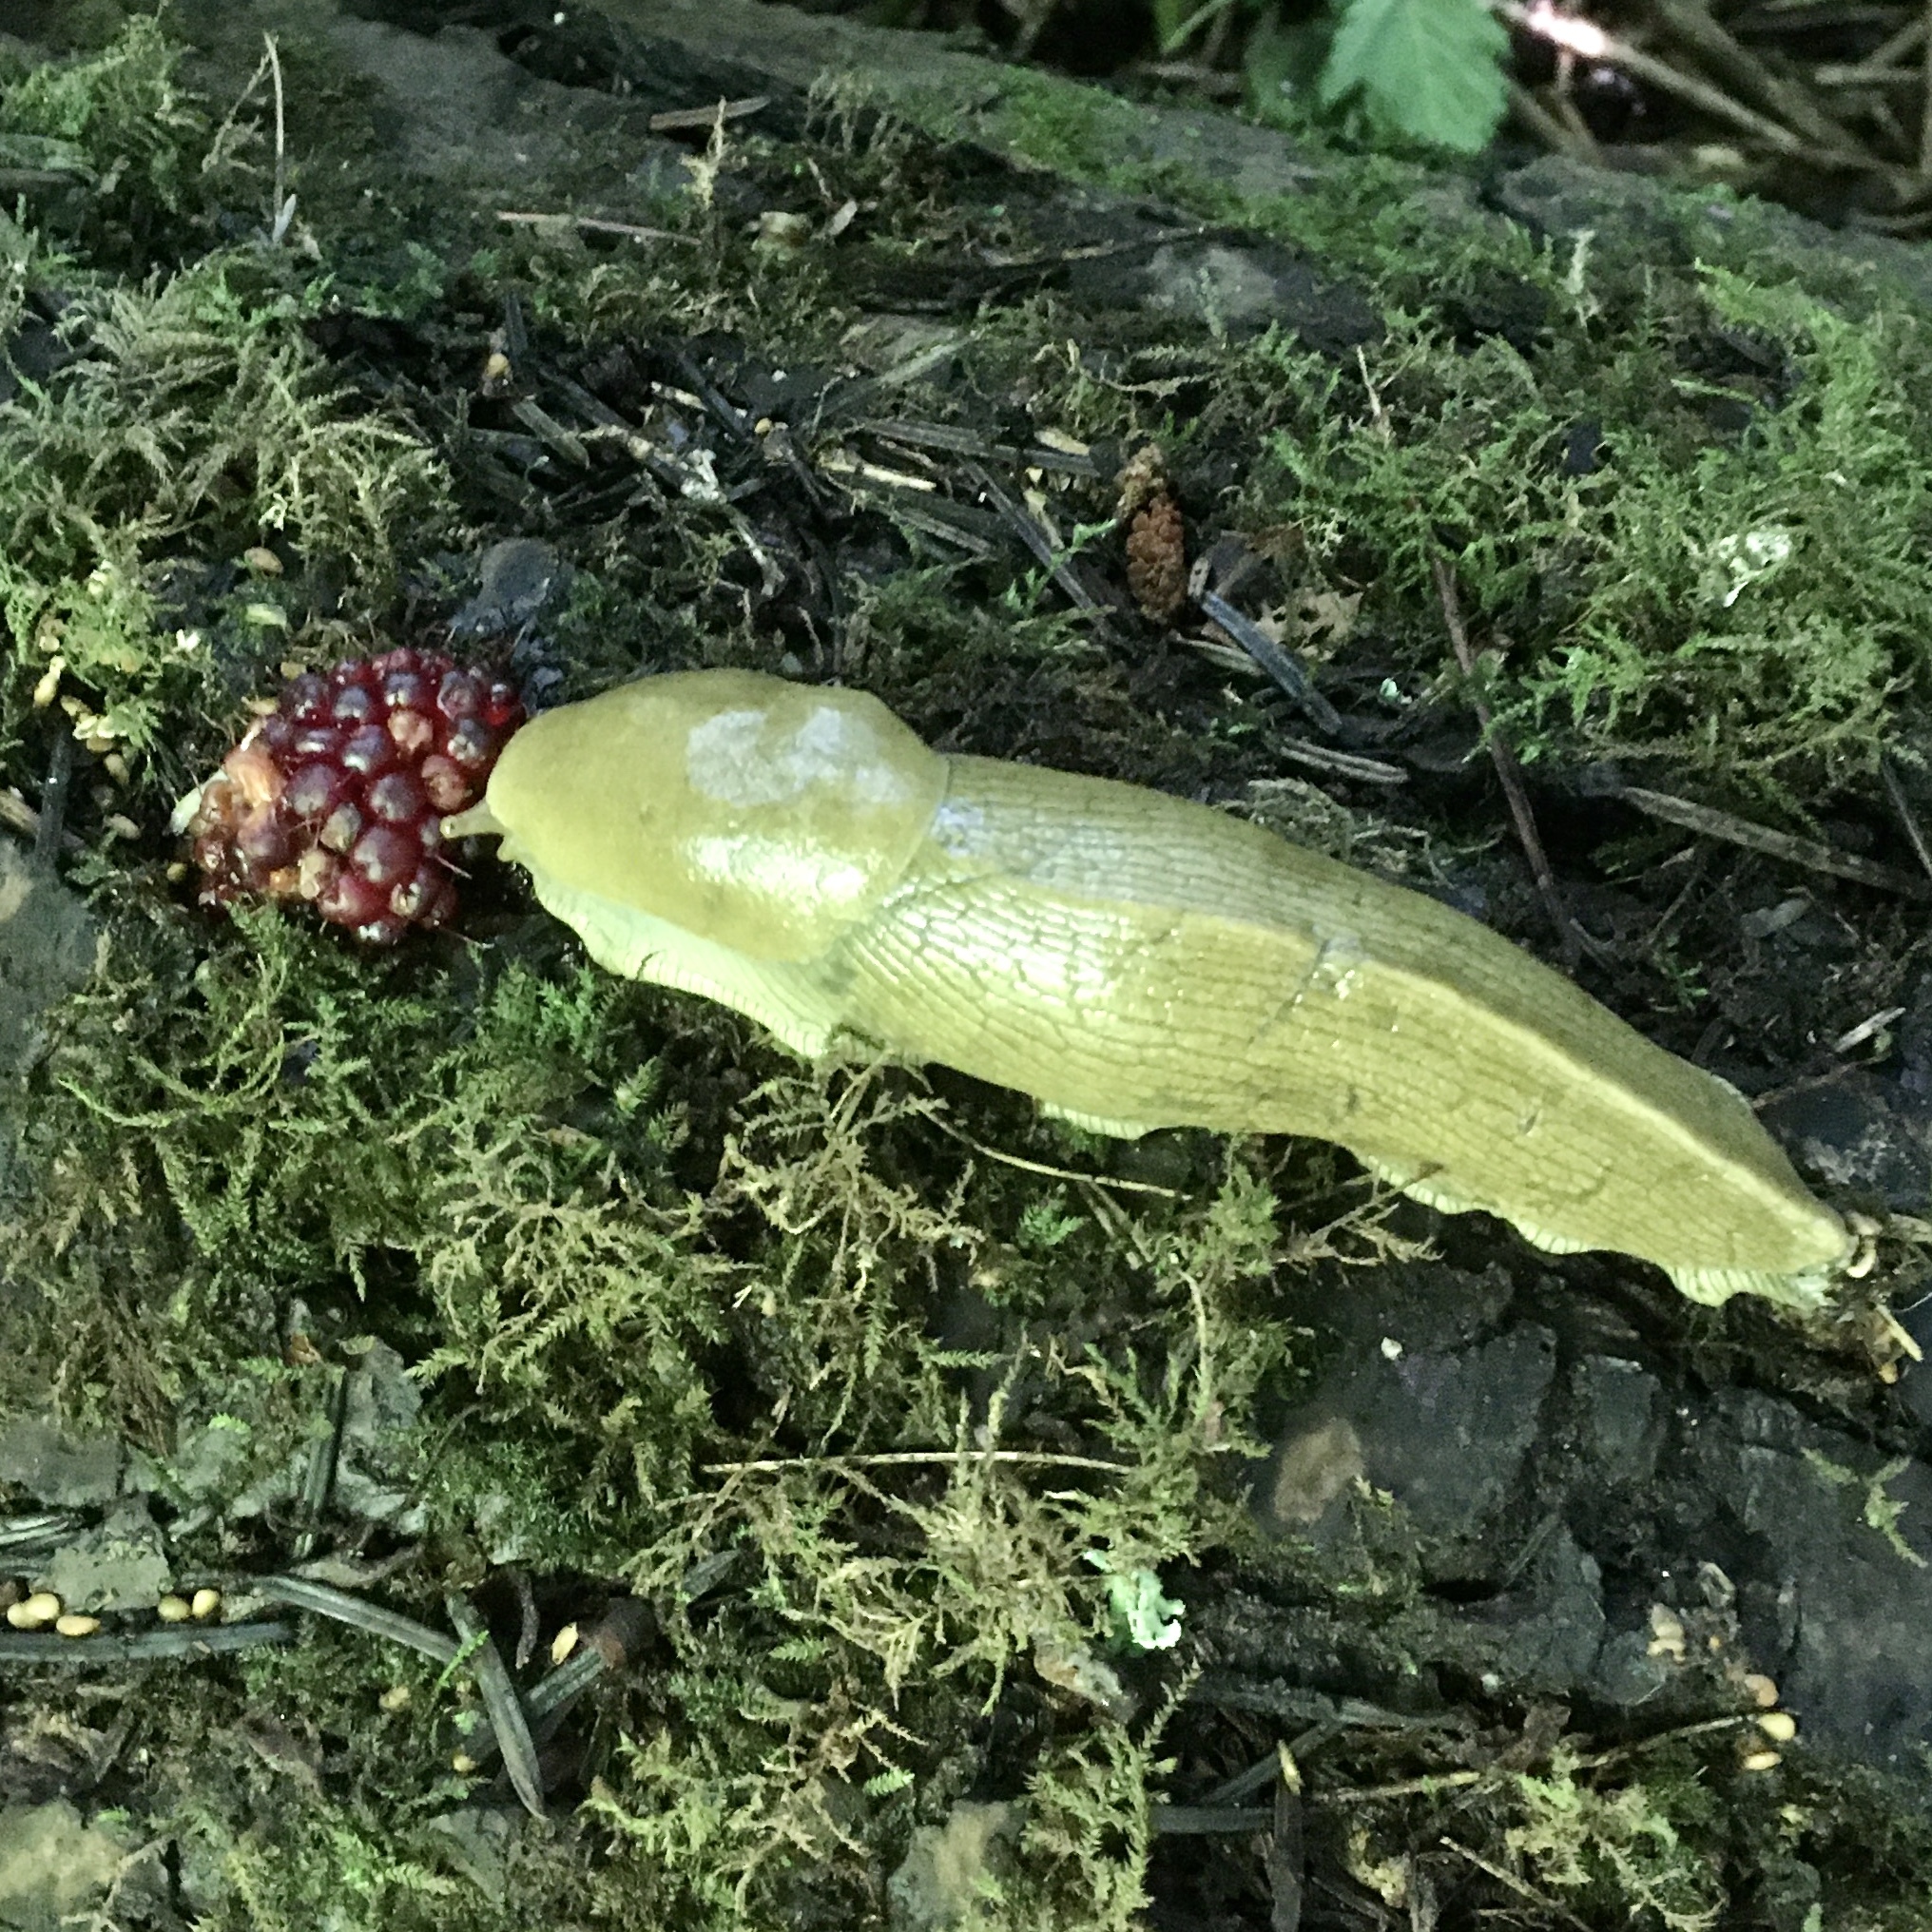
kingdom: Animalia
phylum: Mollusca
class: Gastropoda
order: Stylommatophora
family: Ariolimacidae
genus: Ariolimax
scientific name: Ariolimax columbianus
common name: Pacific banana slug
